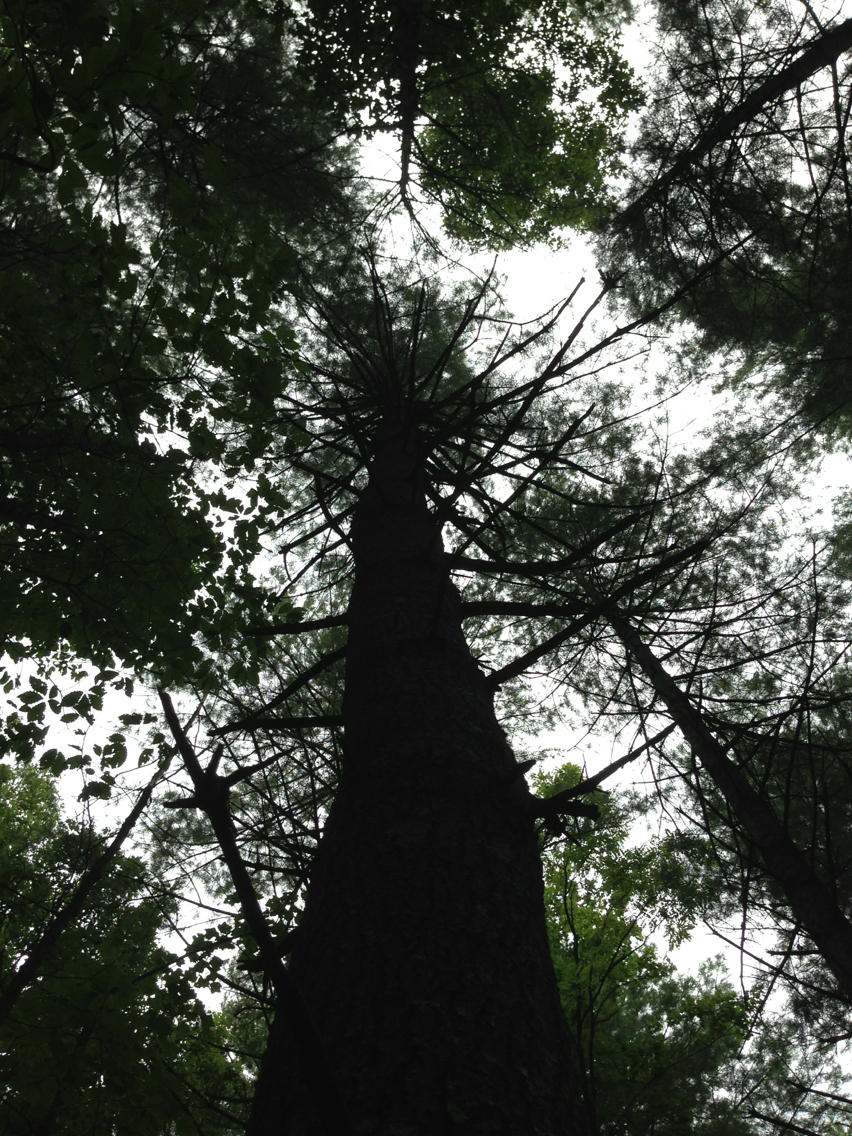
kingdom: Plantae
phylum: Tracheophyta
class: Pinopsida
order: Pinales
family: Pinaceae
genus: Pinus
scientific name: Pinus strobus
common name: Weymouth pine
